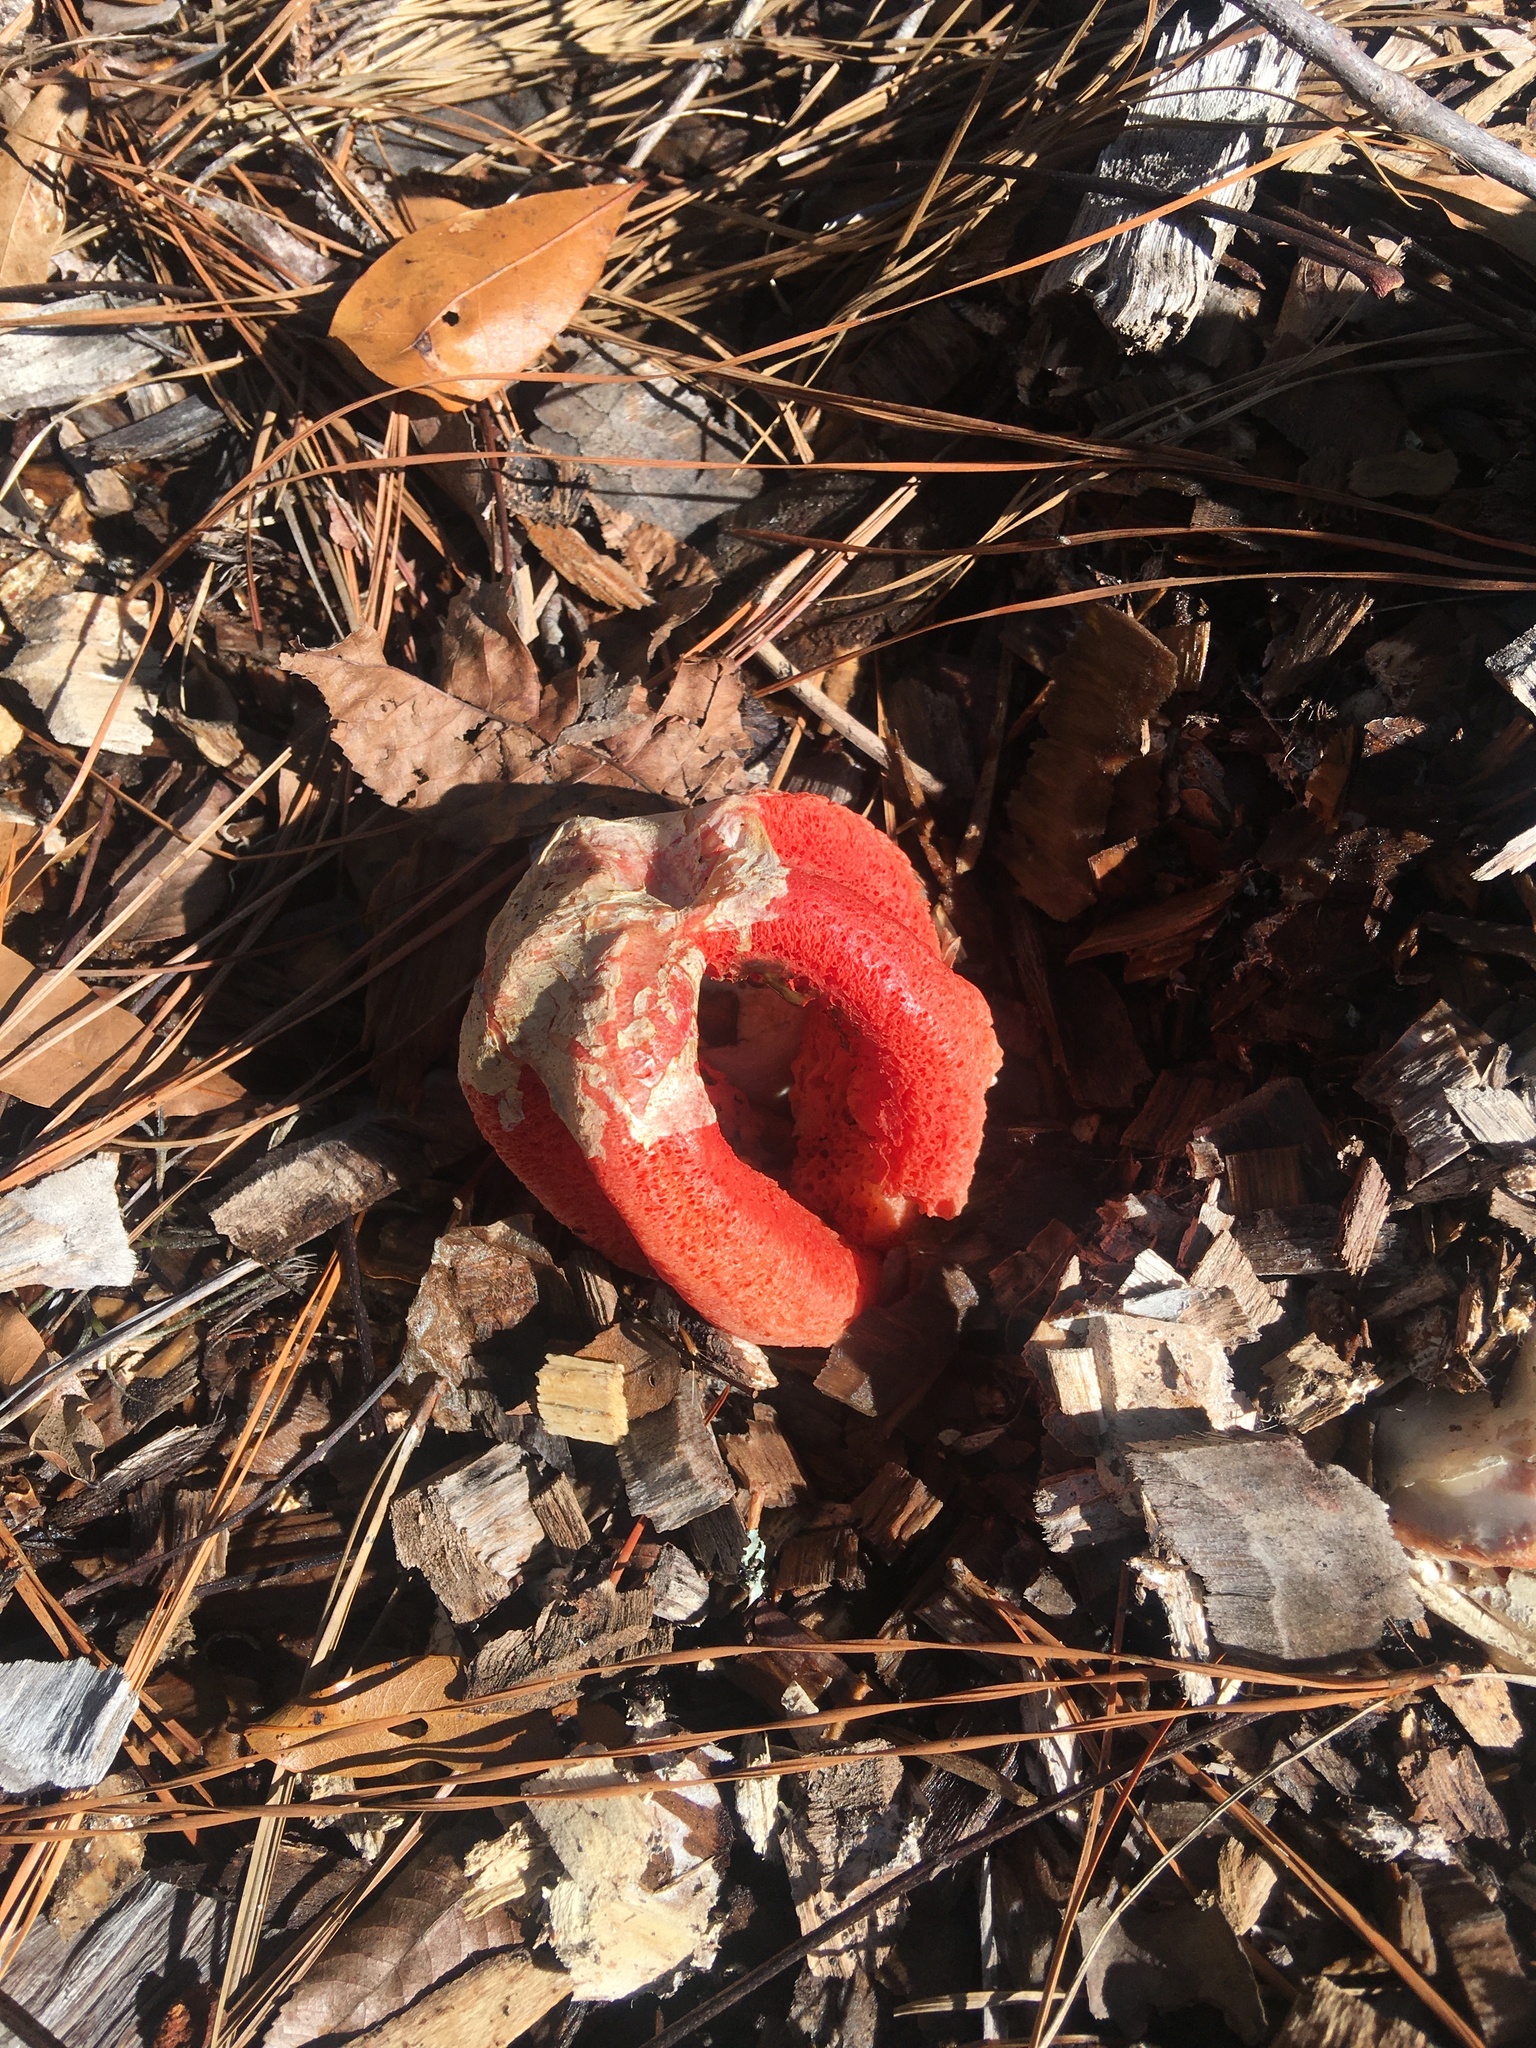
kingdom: Fungi
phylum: Basidiomycota
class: Agaricomycetes
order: Phallales
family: Phallaceae
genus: Clathrus
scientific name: Clathrus columnatus
